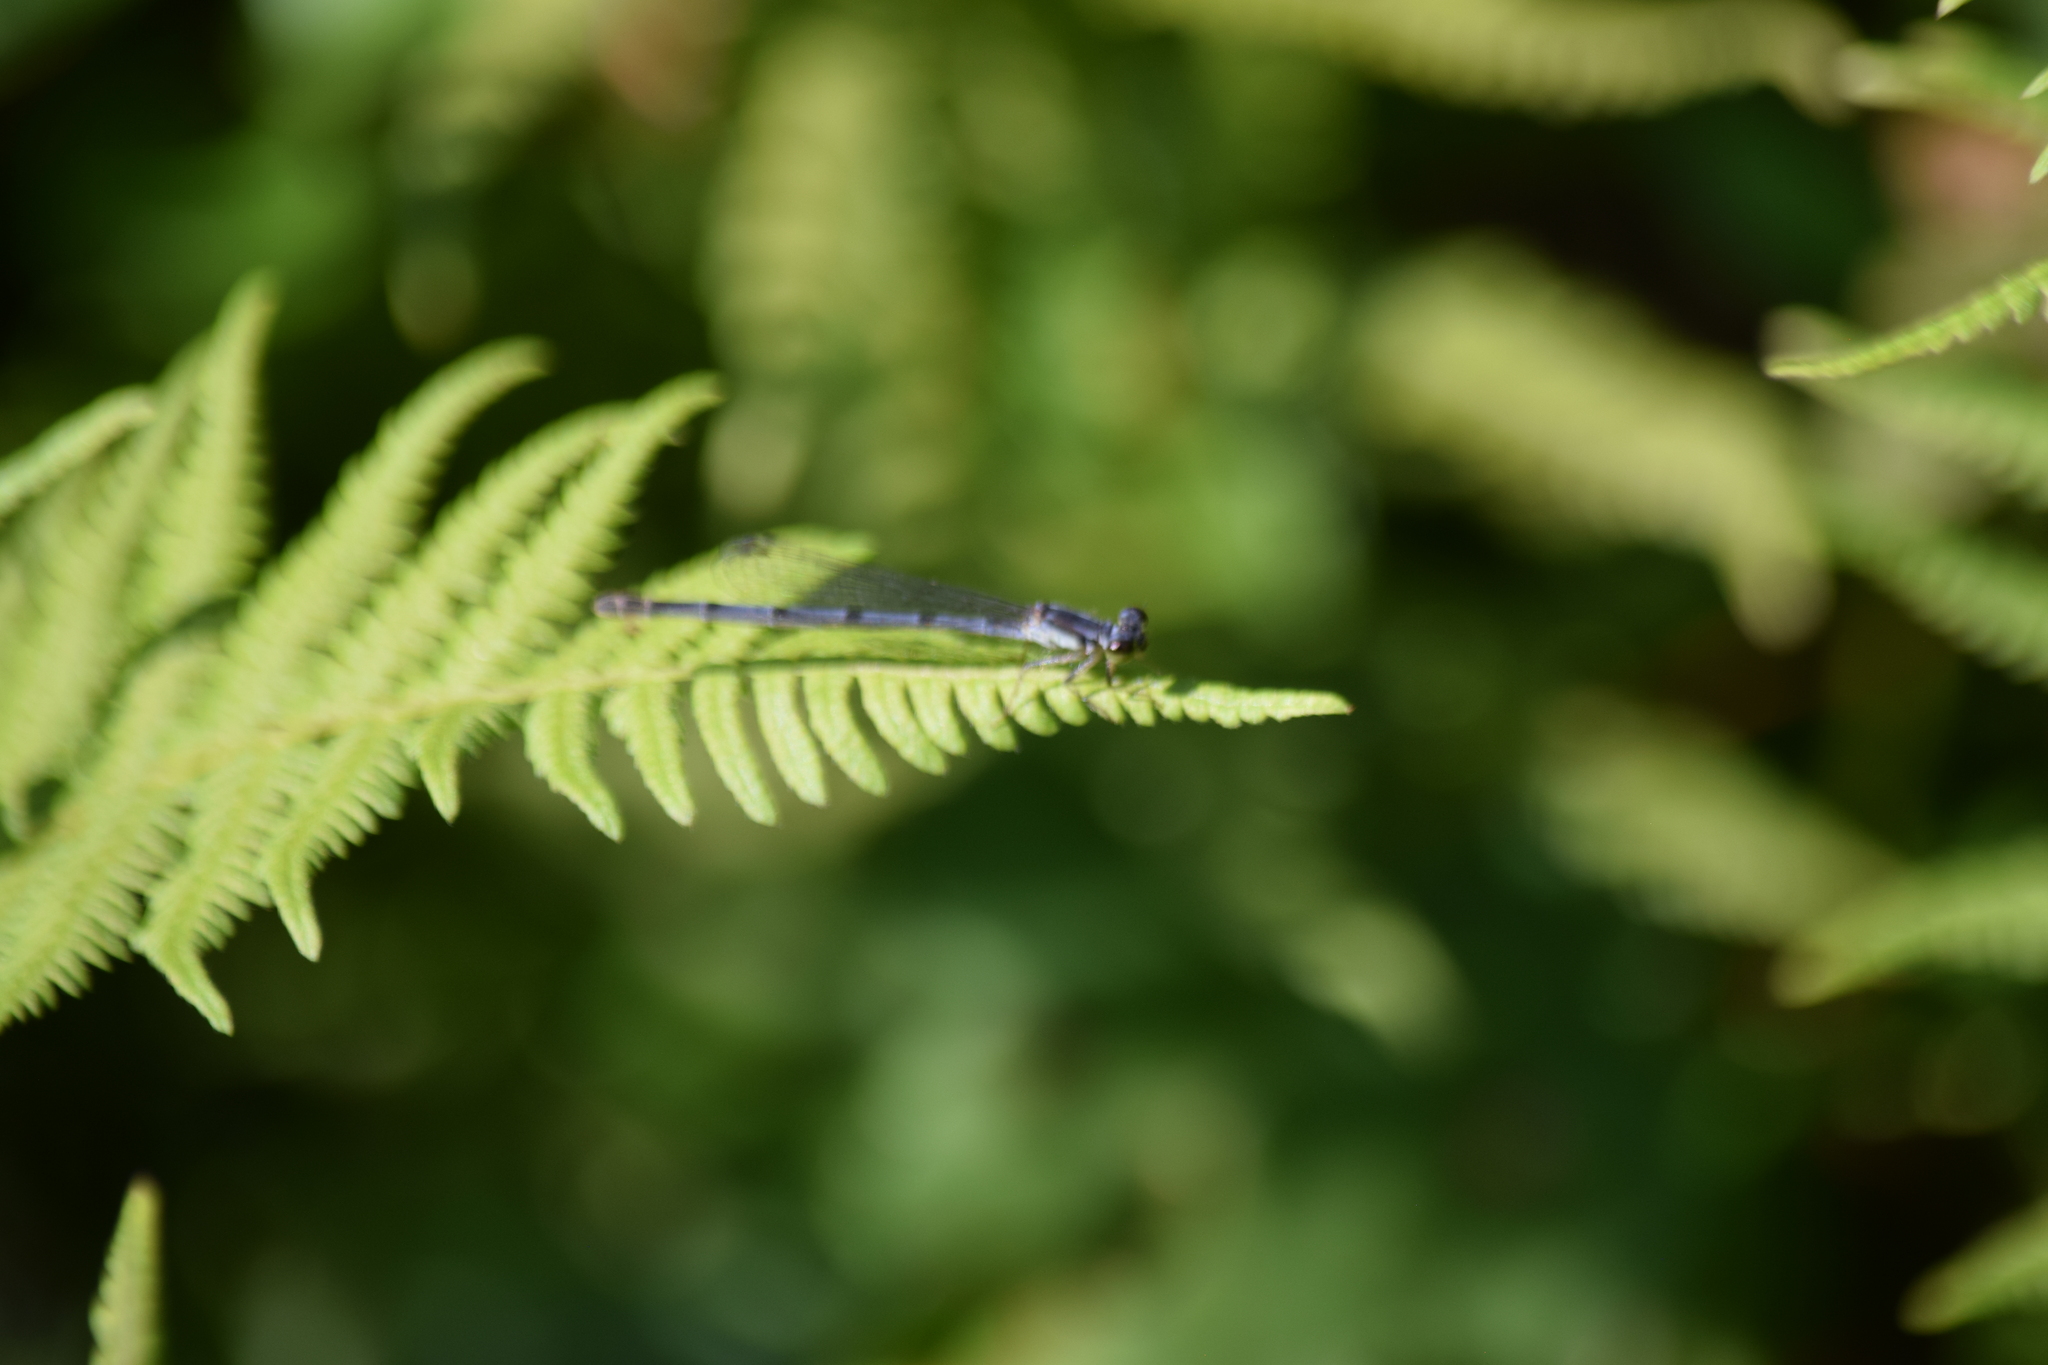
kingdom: Animalia
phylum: Arthropoda
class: Insecta
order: Odonata
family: Coenagrionidae
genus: Ischnura
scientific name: Ischnura posita
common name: Fragile forktail
